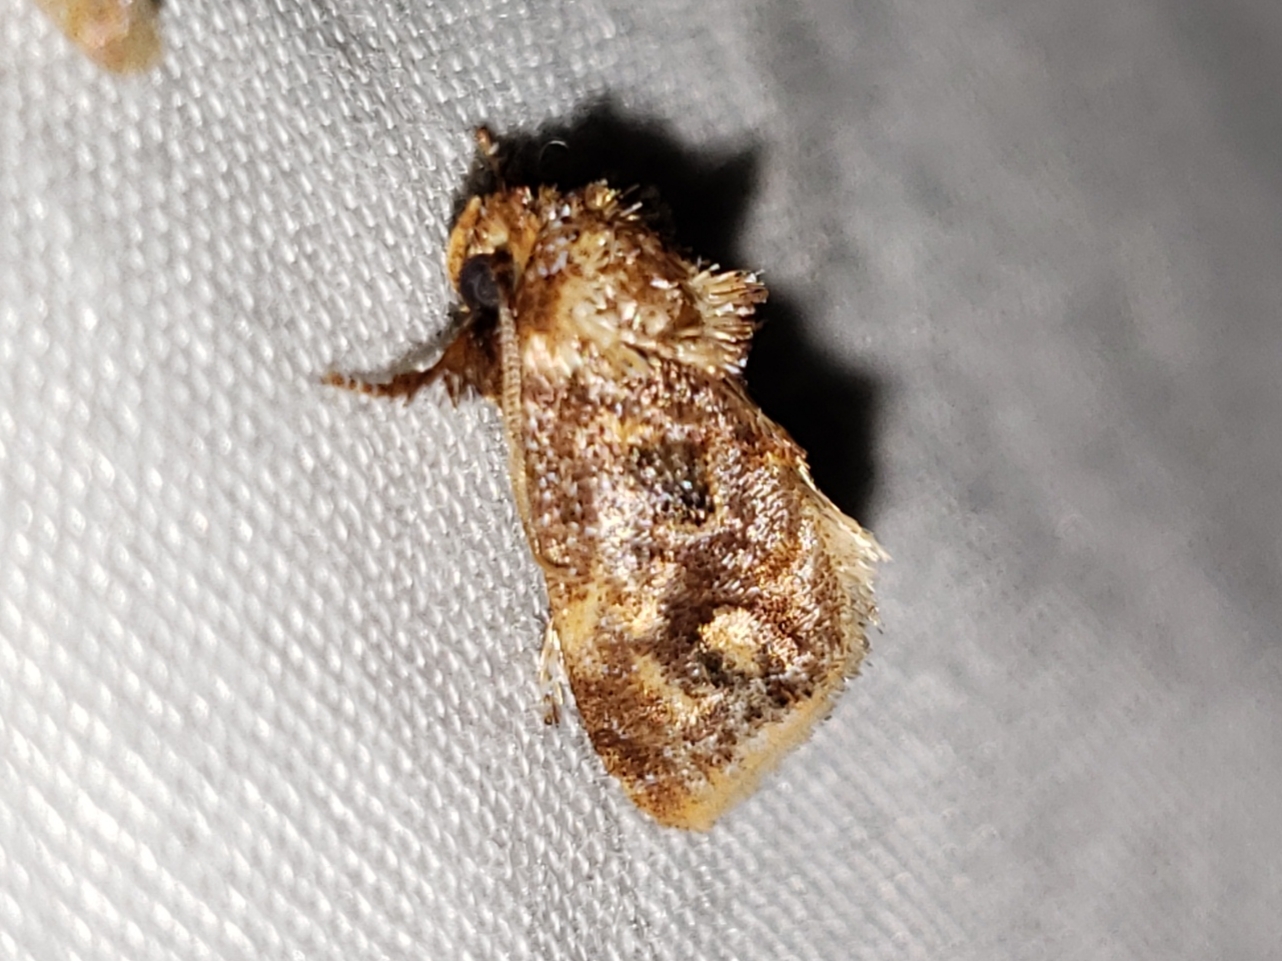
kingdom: Animalia
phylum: Arthropoda
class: Insecta
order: Lepidoptera
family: Limacodidae
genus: Isochaetes
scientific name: Isochaetes beutenmuelleri
